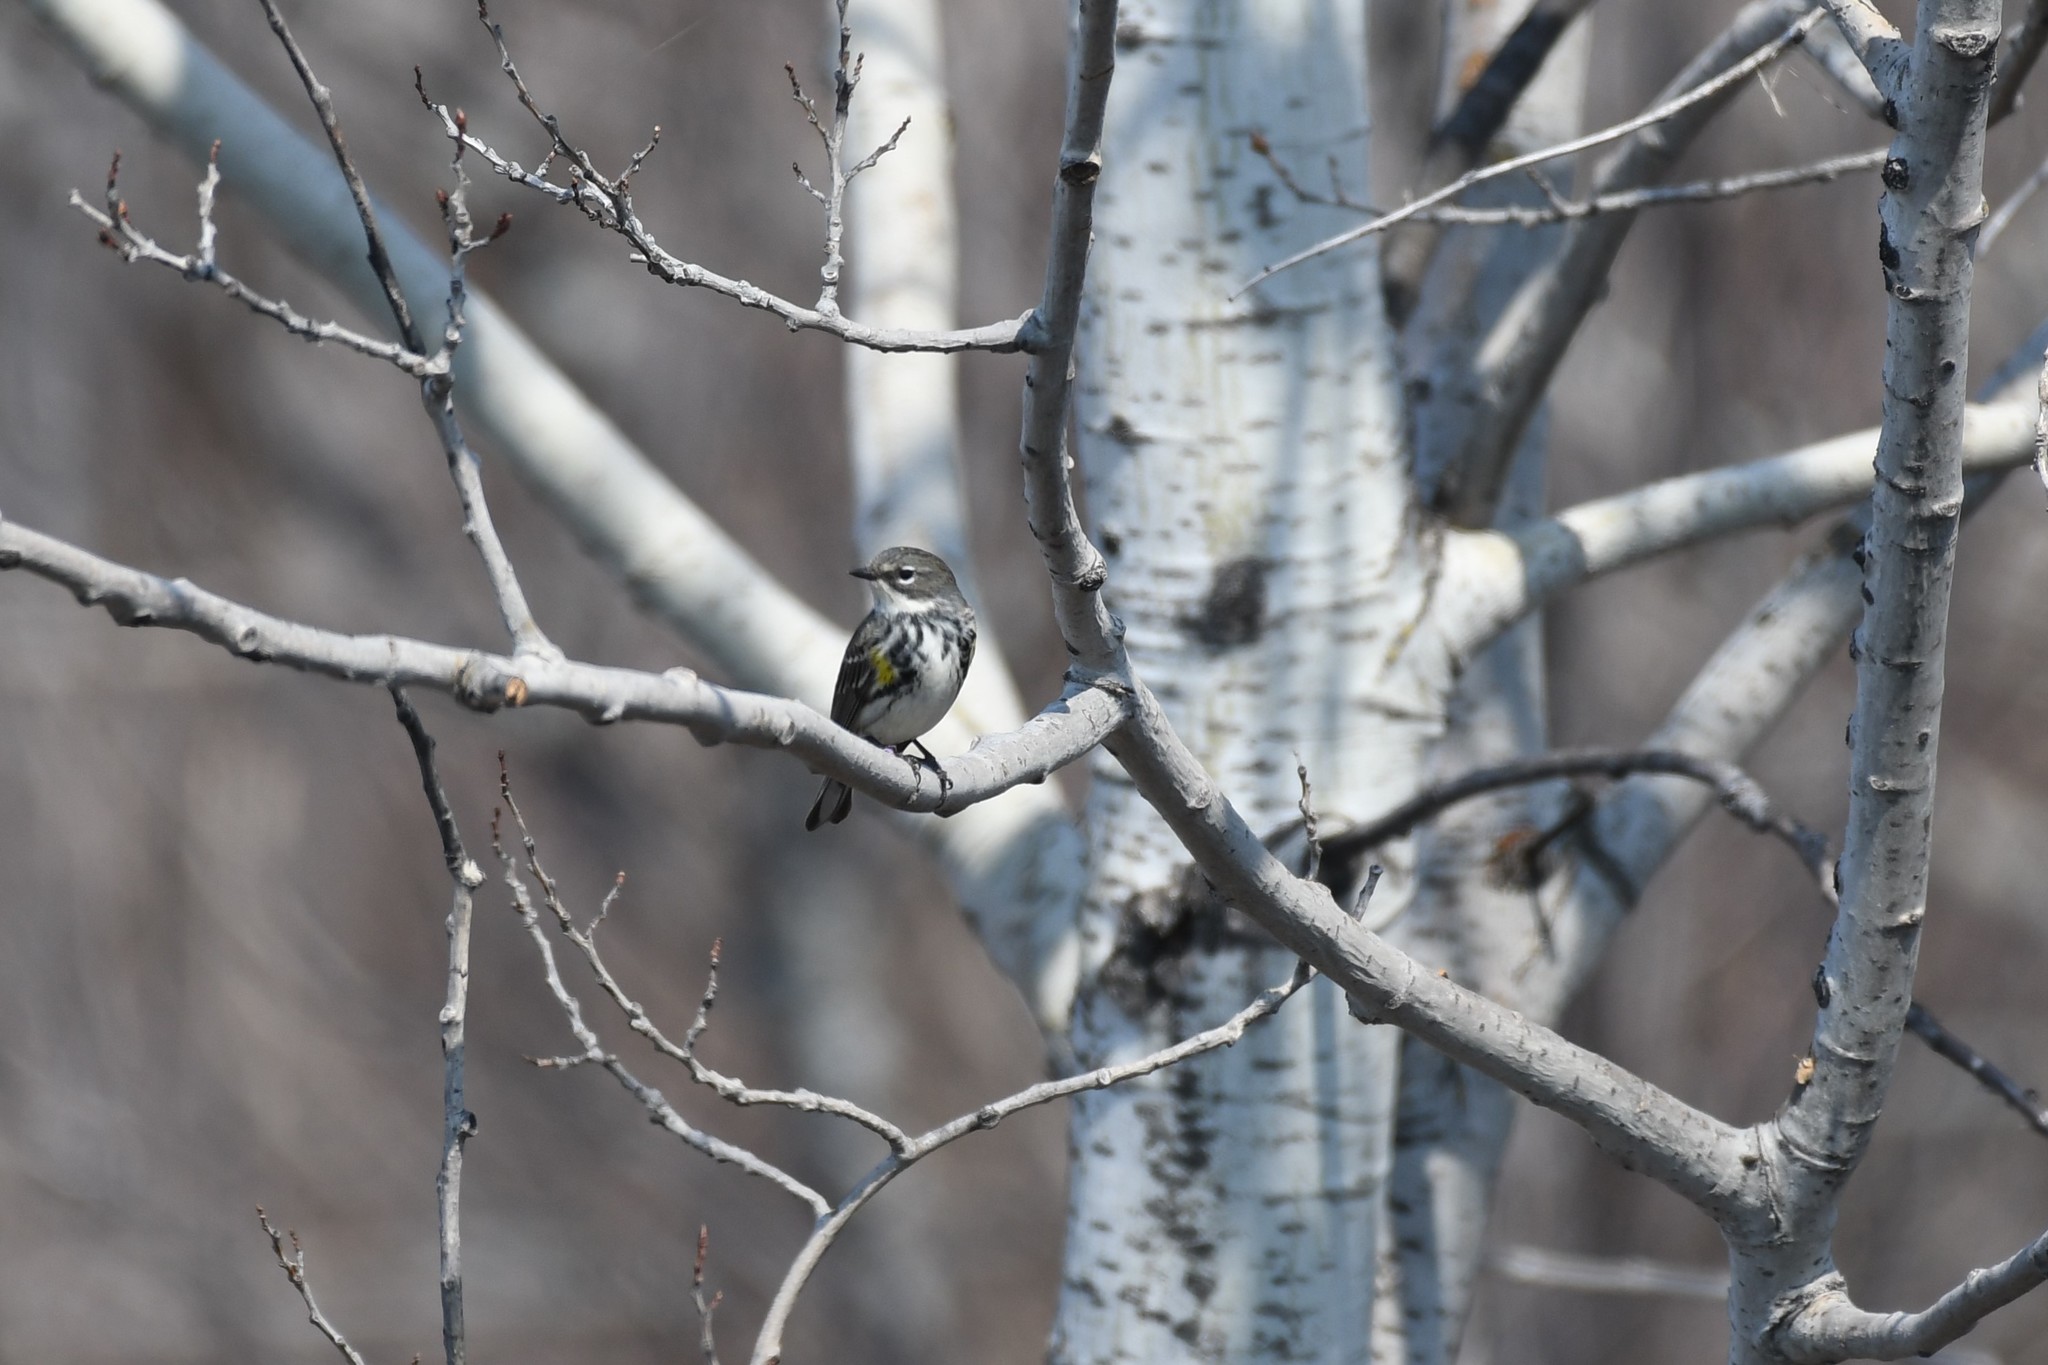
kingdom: Animalia
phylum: Chordata
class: Aves
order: Passeriformes
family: Parulidae
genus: Setophaga
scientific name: Setophaga coronata
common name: Myrtle warbler
